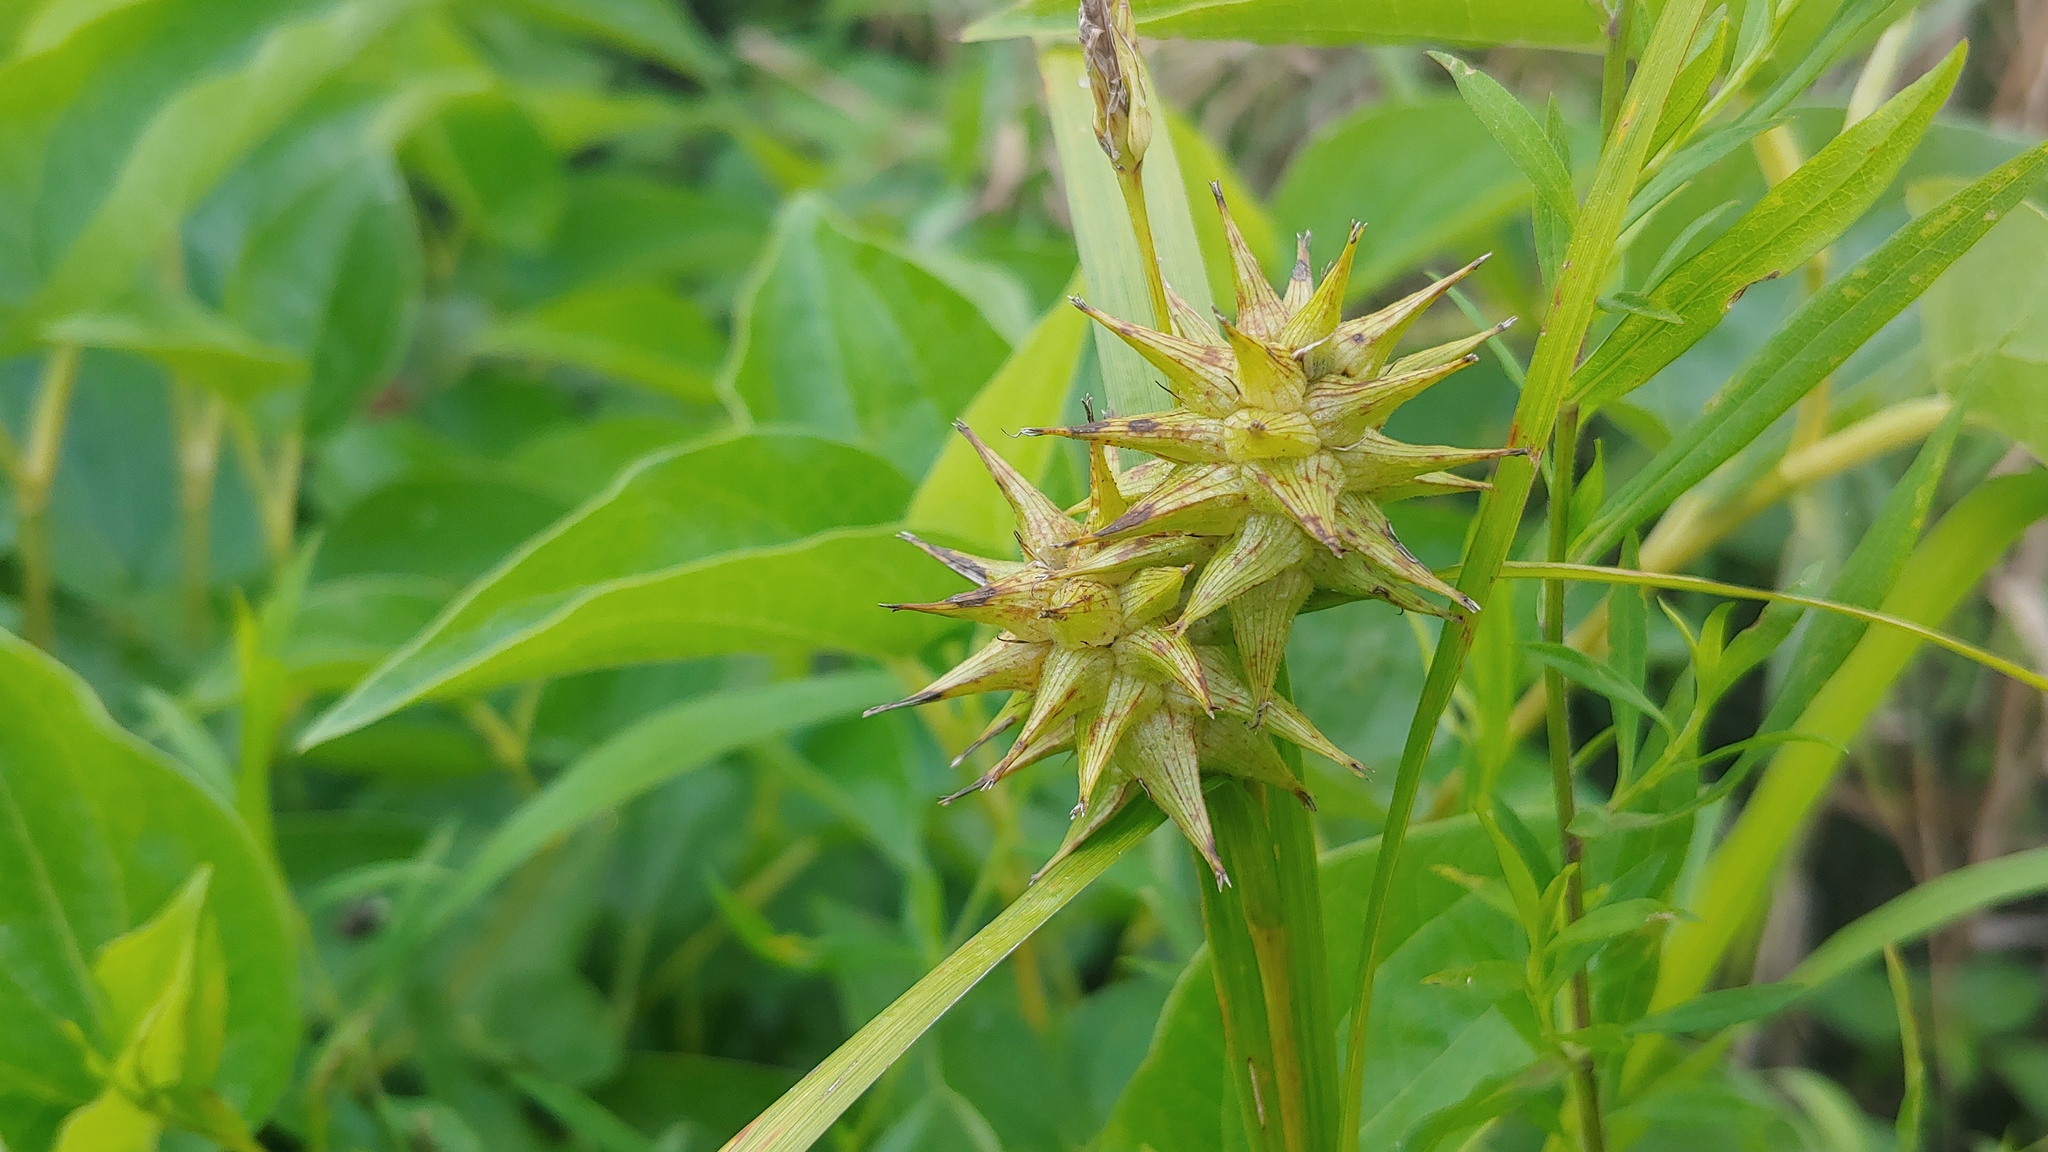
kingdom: Plantae
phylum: Tracheophyta
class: Liliopsida
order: Poales
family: Cyperaceae
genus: Carex
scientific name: Carex grayi
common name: Asa gray's sedge
